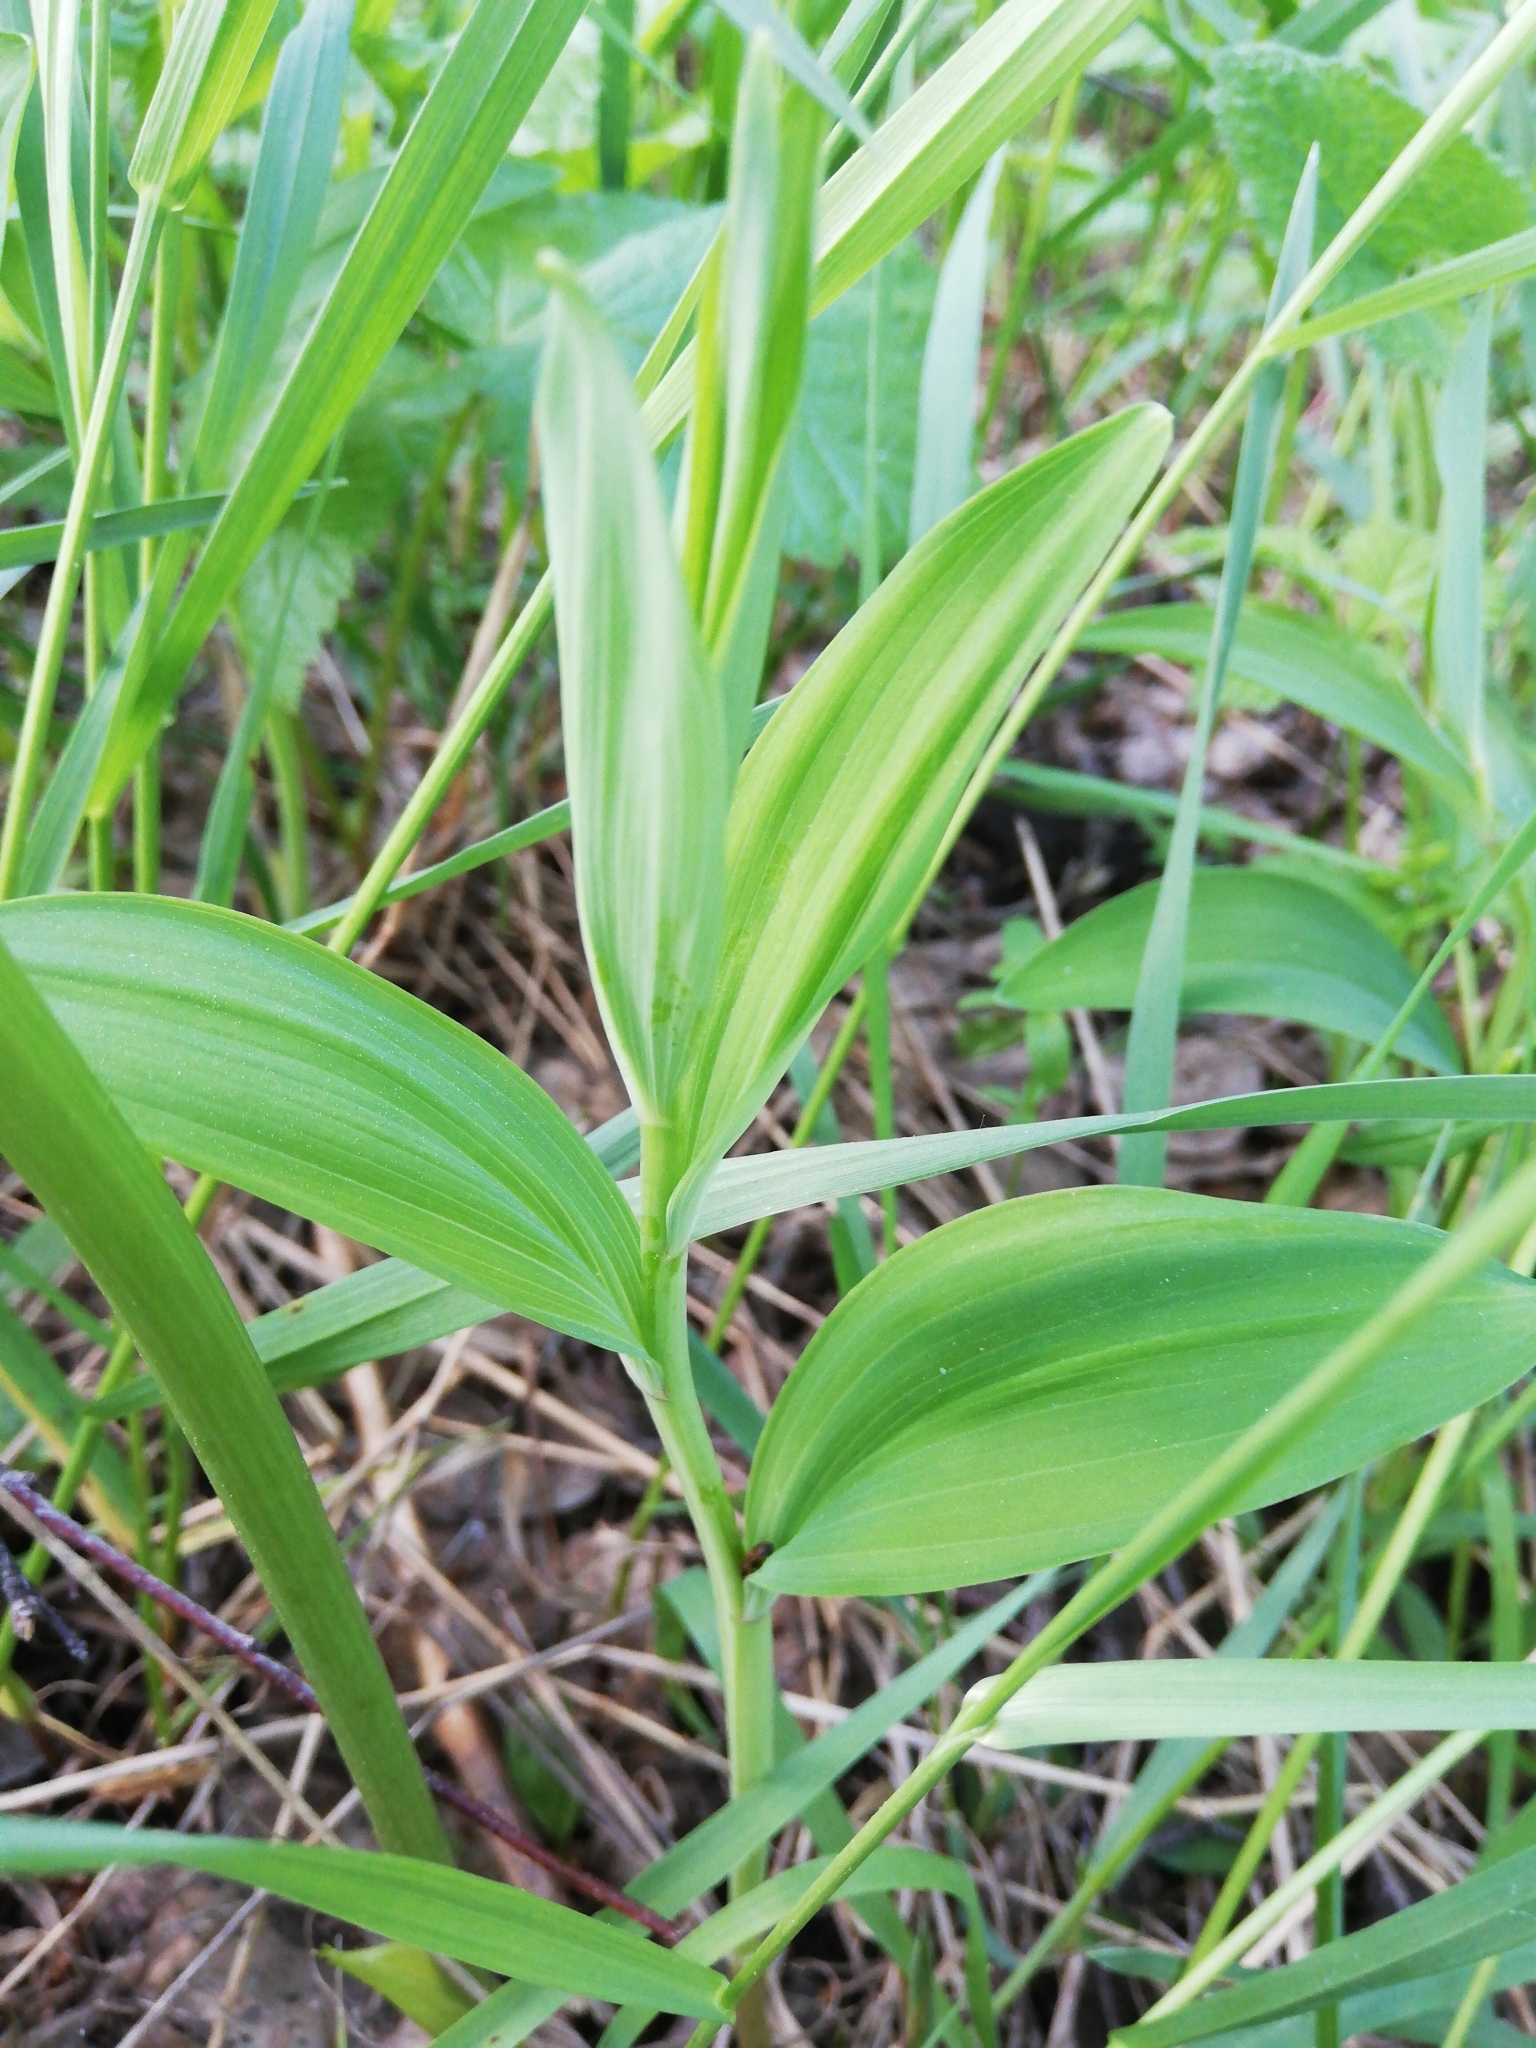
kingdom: Plantae
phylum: Tracheophyta
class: Liliopsida
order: Asparagales
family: Asparagaceae
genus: Polygonatum
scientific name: Polygonatum odoratum
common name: Angular solomon's-seal
